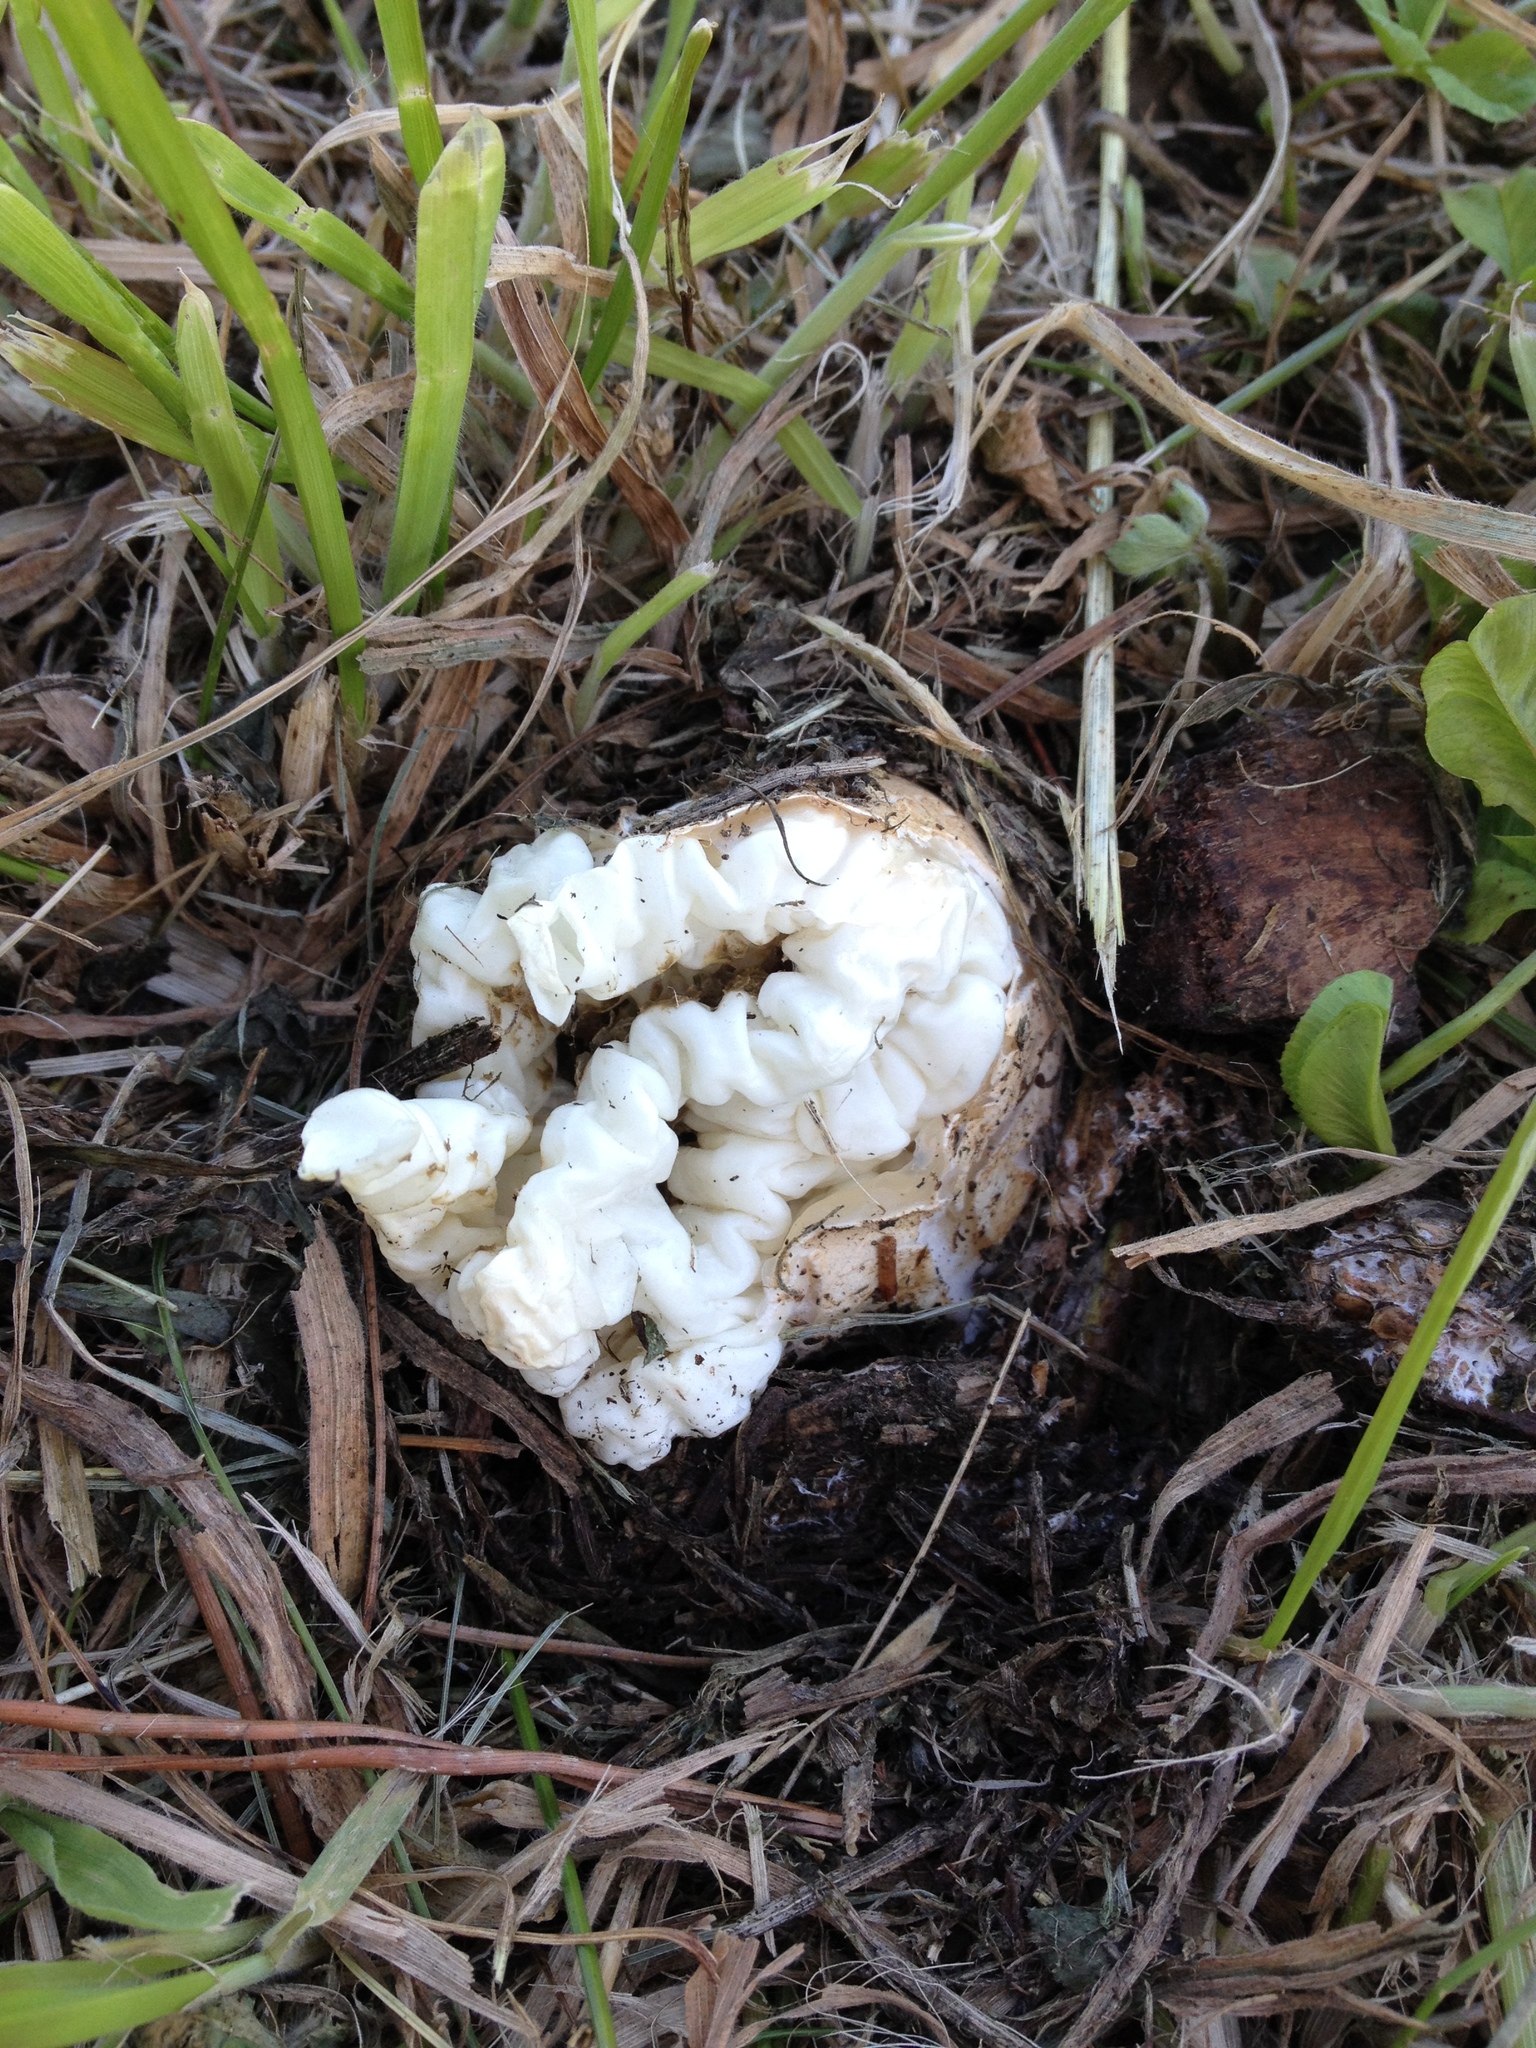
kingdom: Fungi
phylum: Basidiomycota
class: Agaricomycetes
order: Phallales
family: Phallaceae
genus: Ileodictyon
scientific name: Ileodictyon cibarium
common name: Basket fungus
